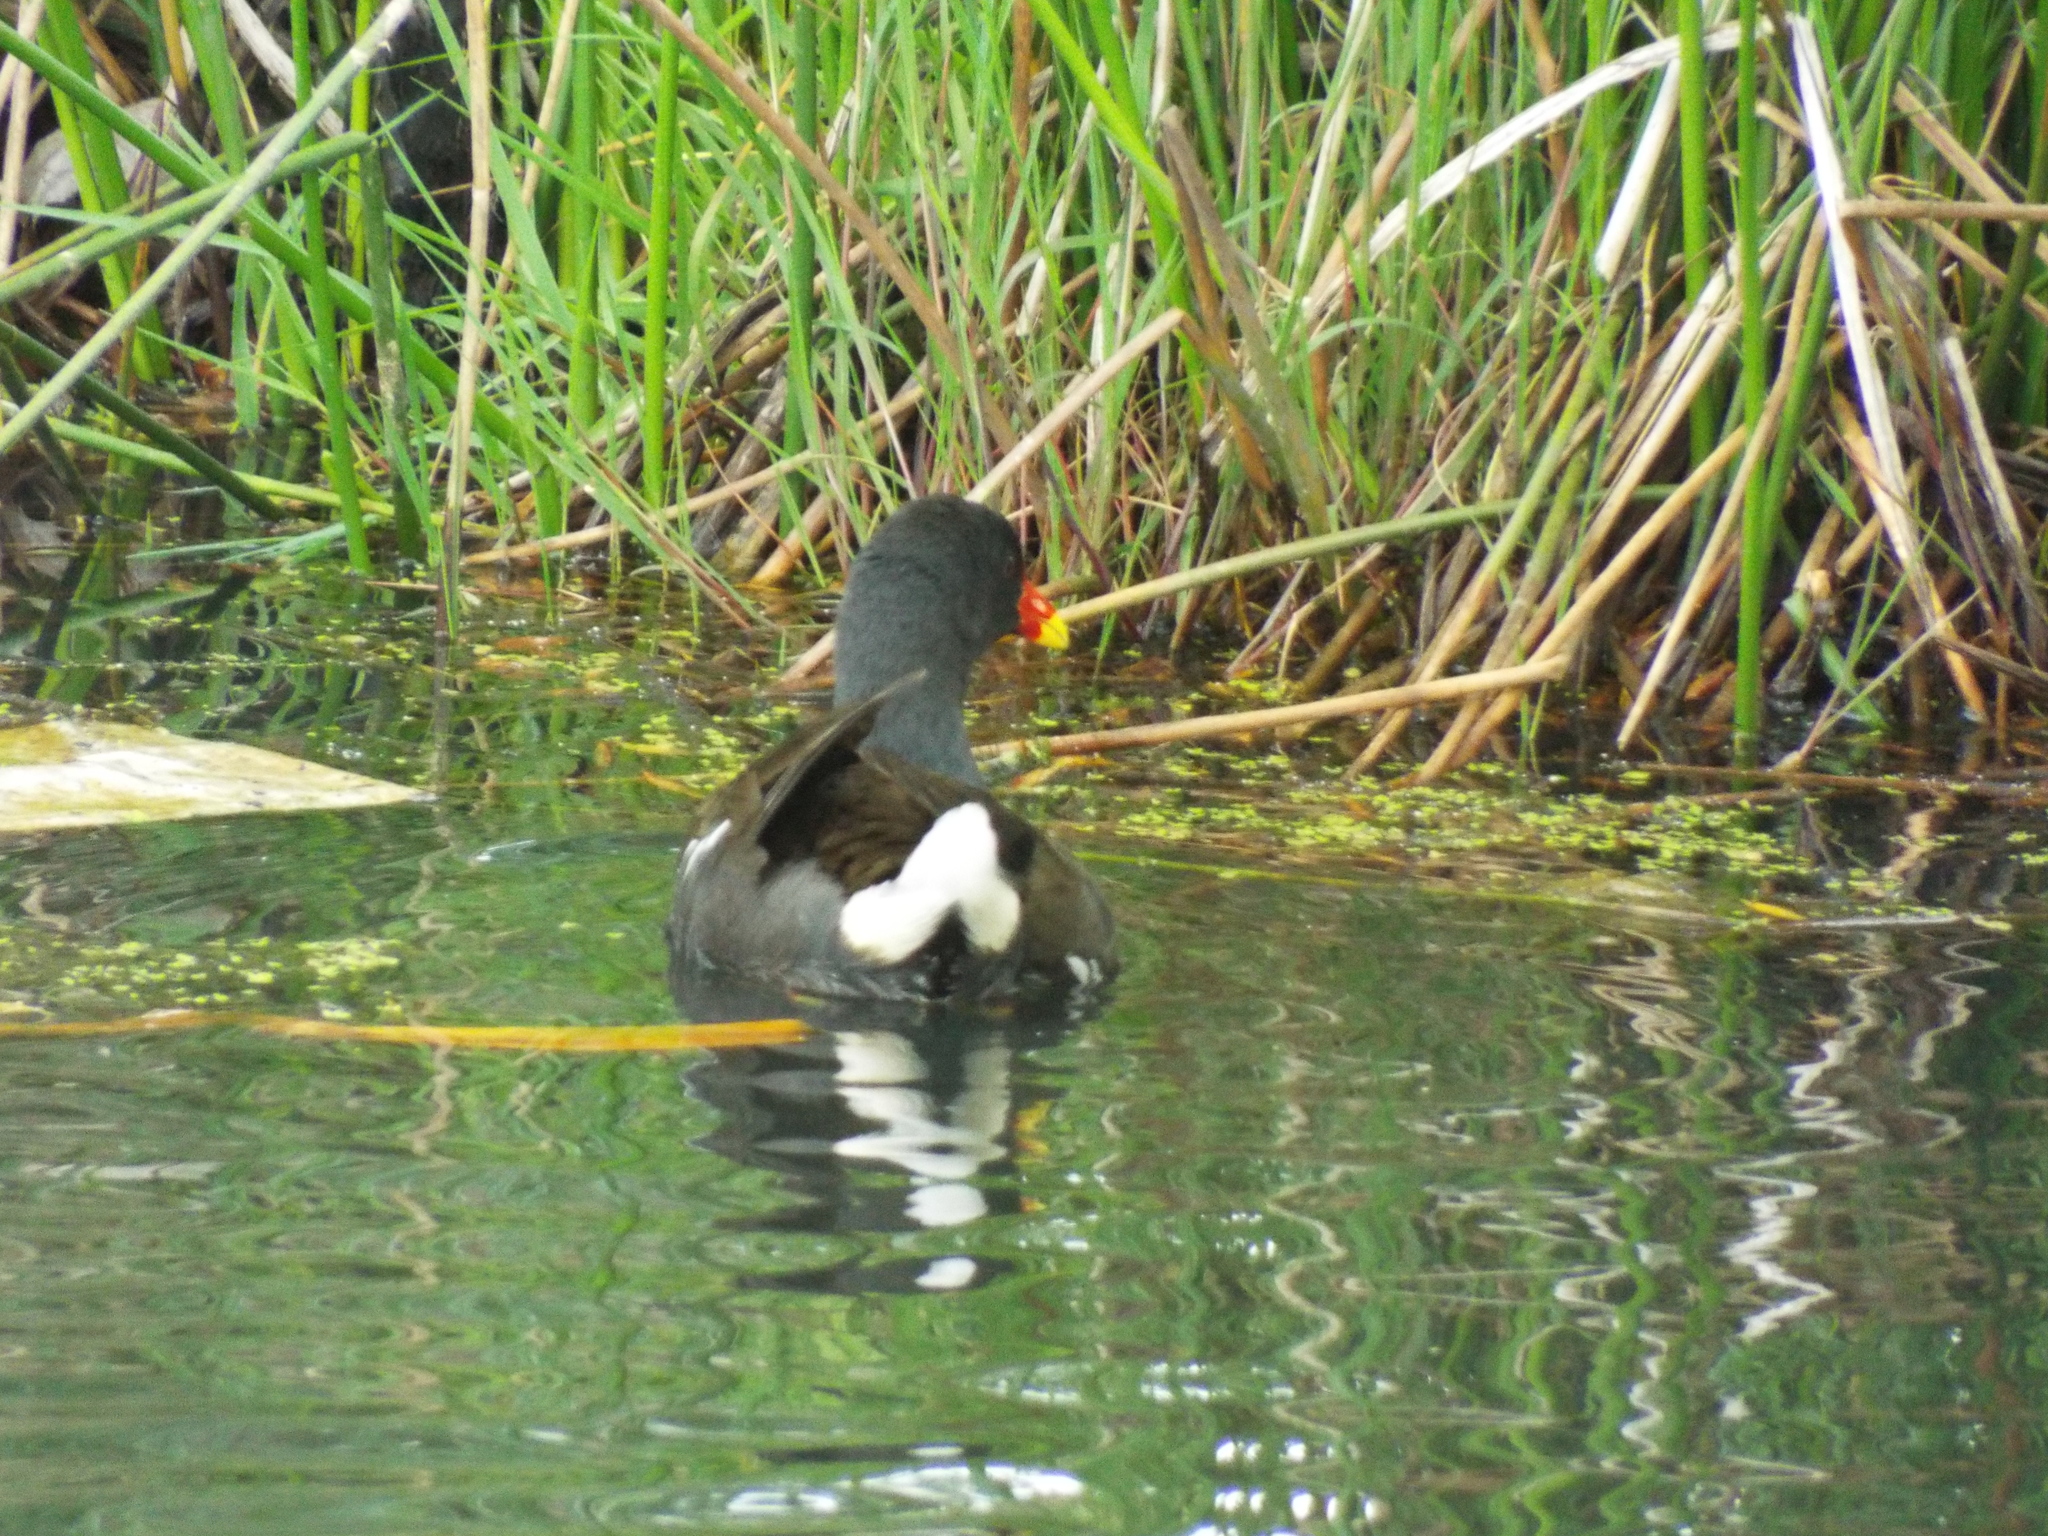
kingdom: Animalia
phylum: Chordata
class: Aves
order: Gruiformes
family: Rallidae
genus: Gallinula
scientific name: Gallinula chloropus
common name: Common moorhen
